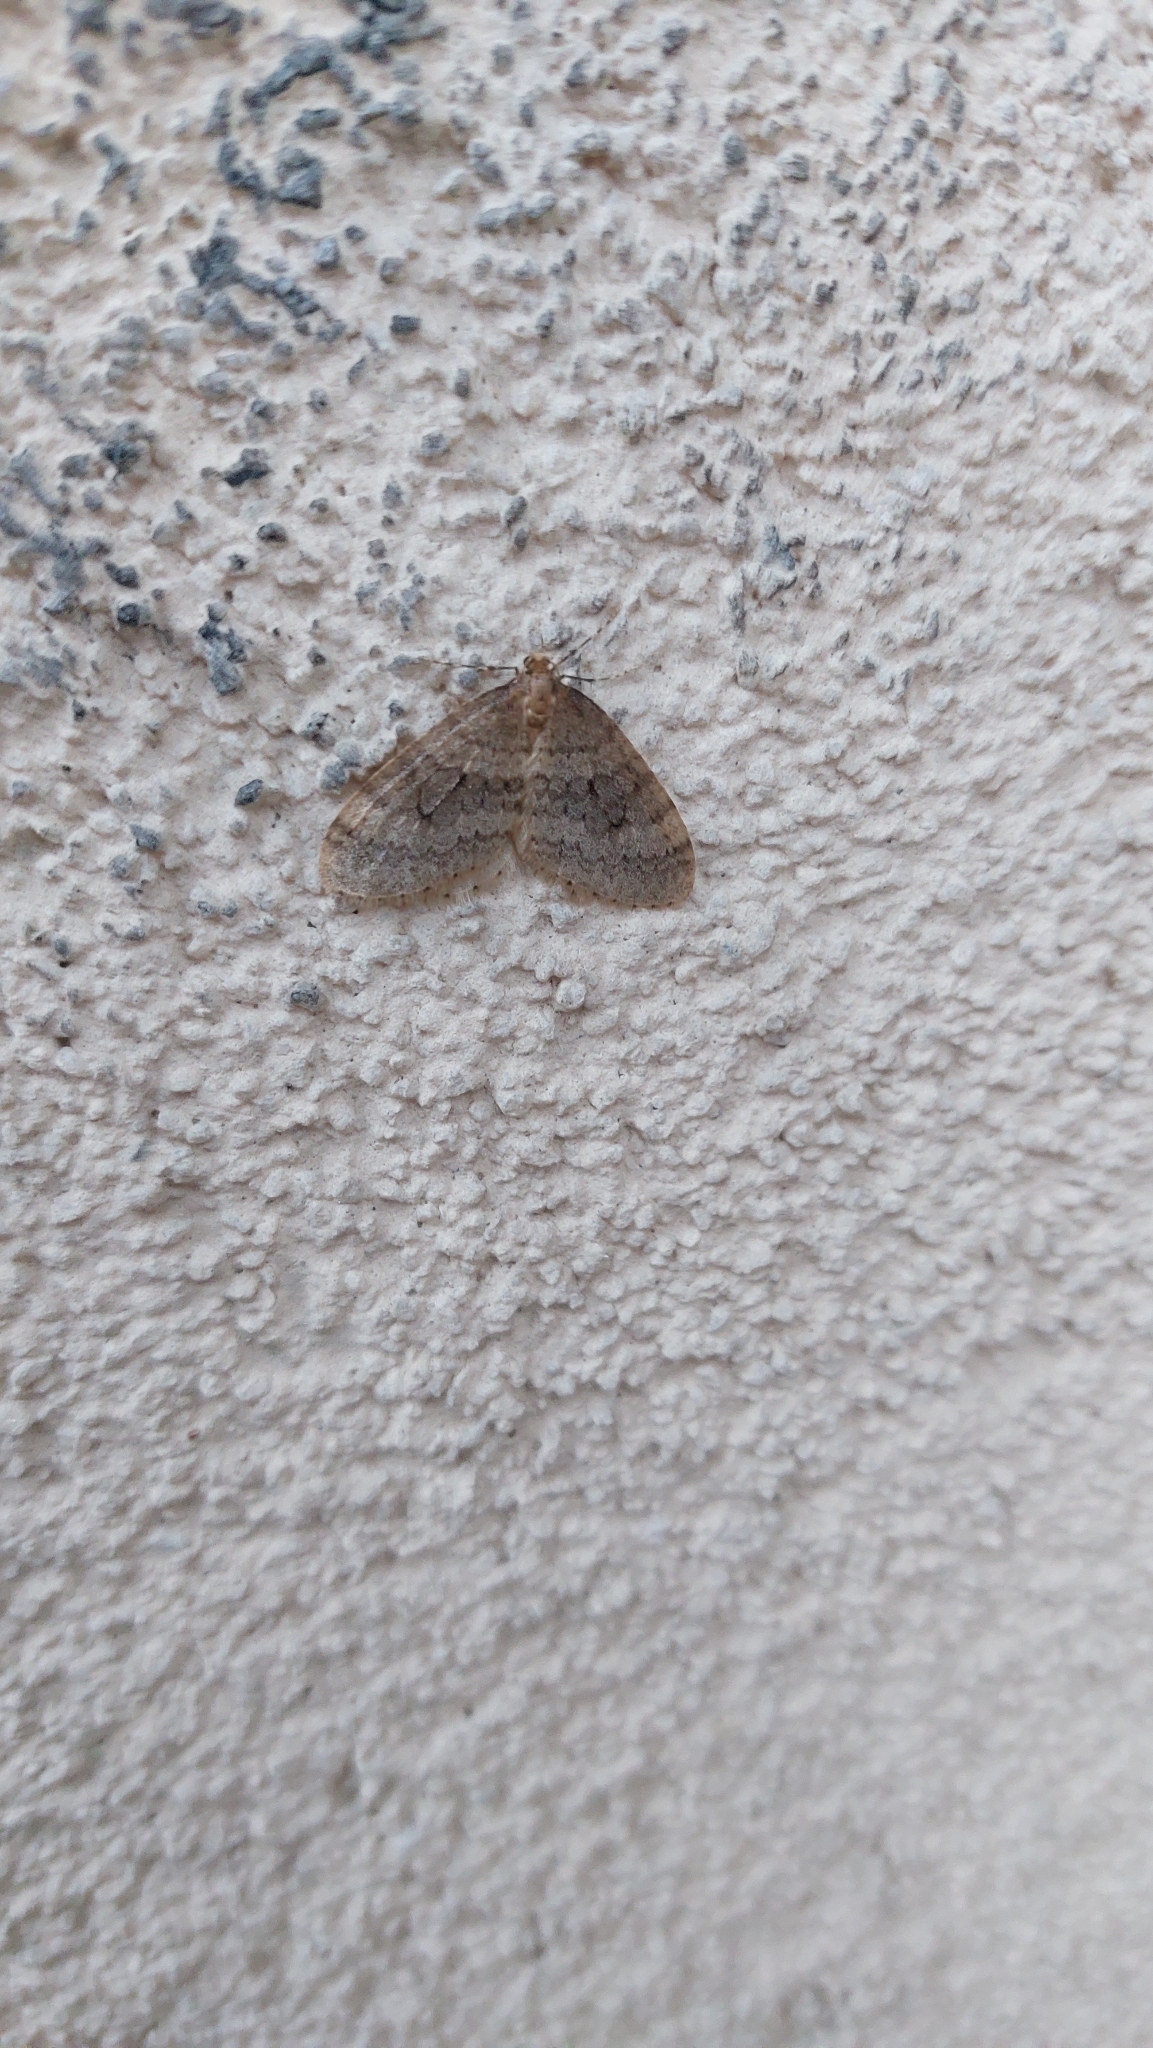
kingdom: Animalia
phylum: Arthropoda
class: Insecta
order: Lepidoptera
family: Geometridae
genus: Operophtera
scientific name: Operophtera brumata
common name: Winter moth
